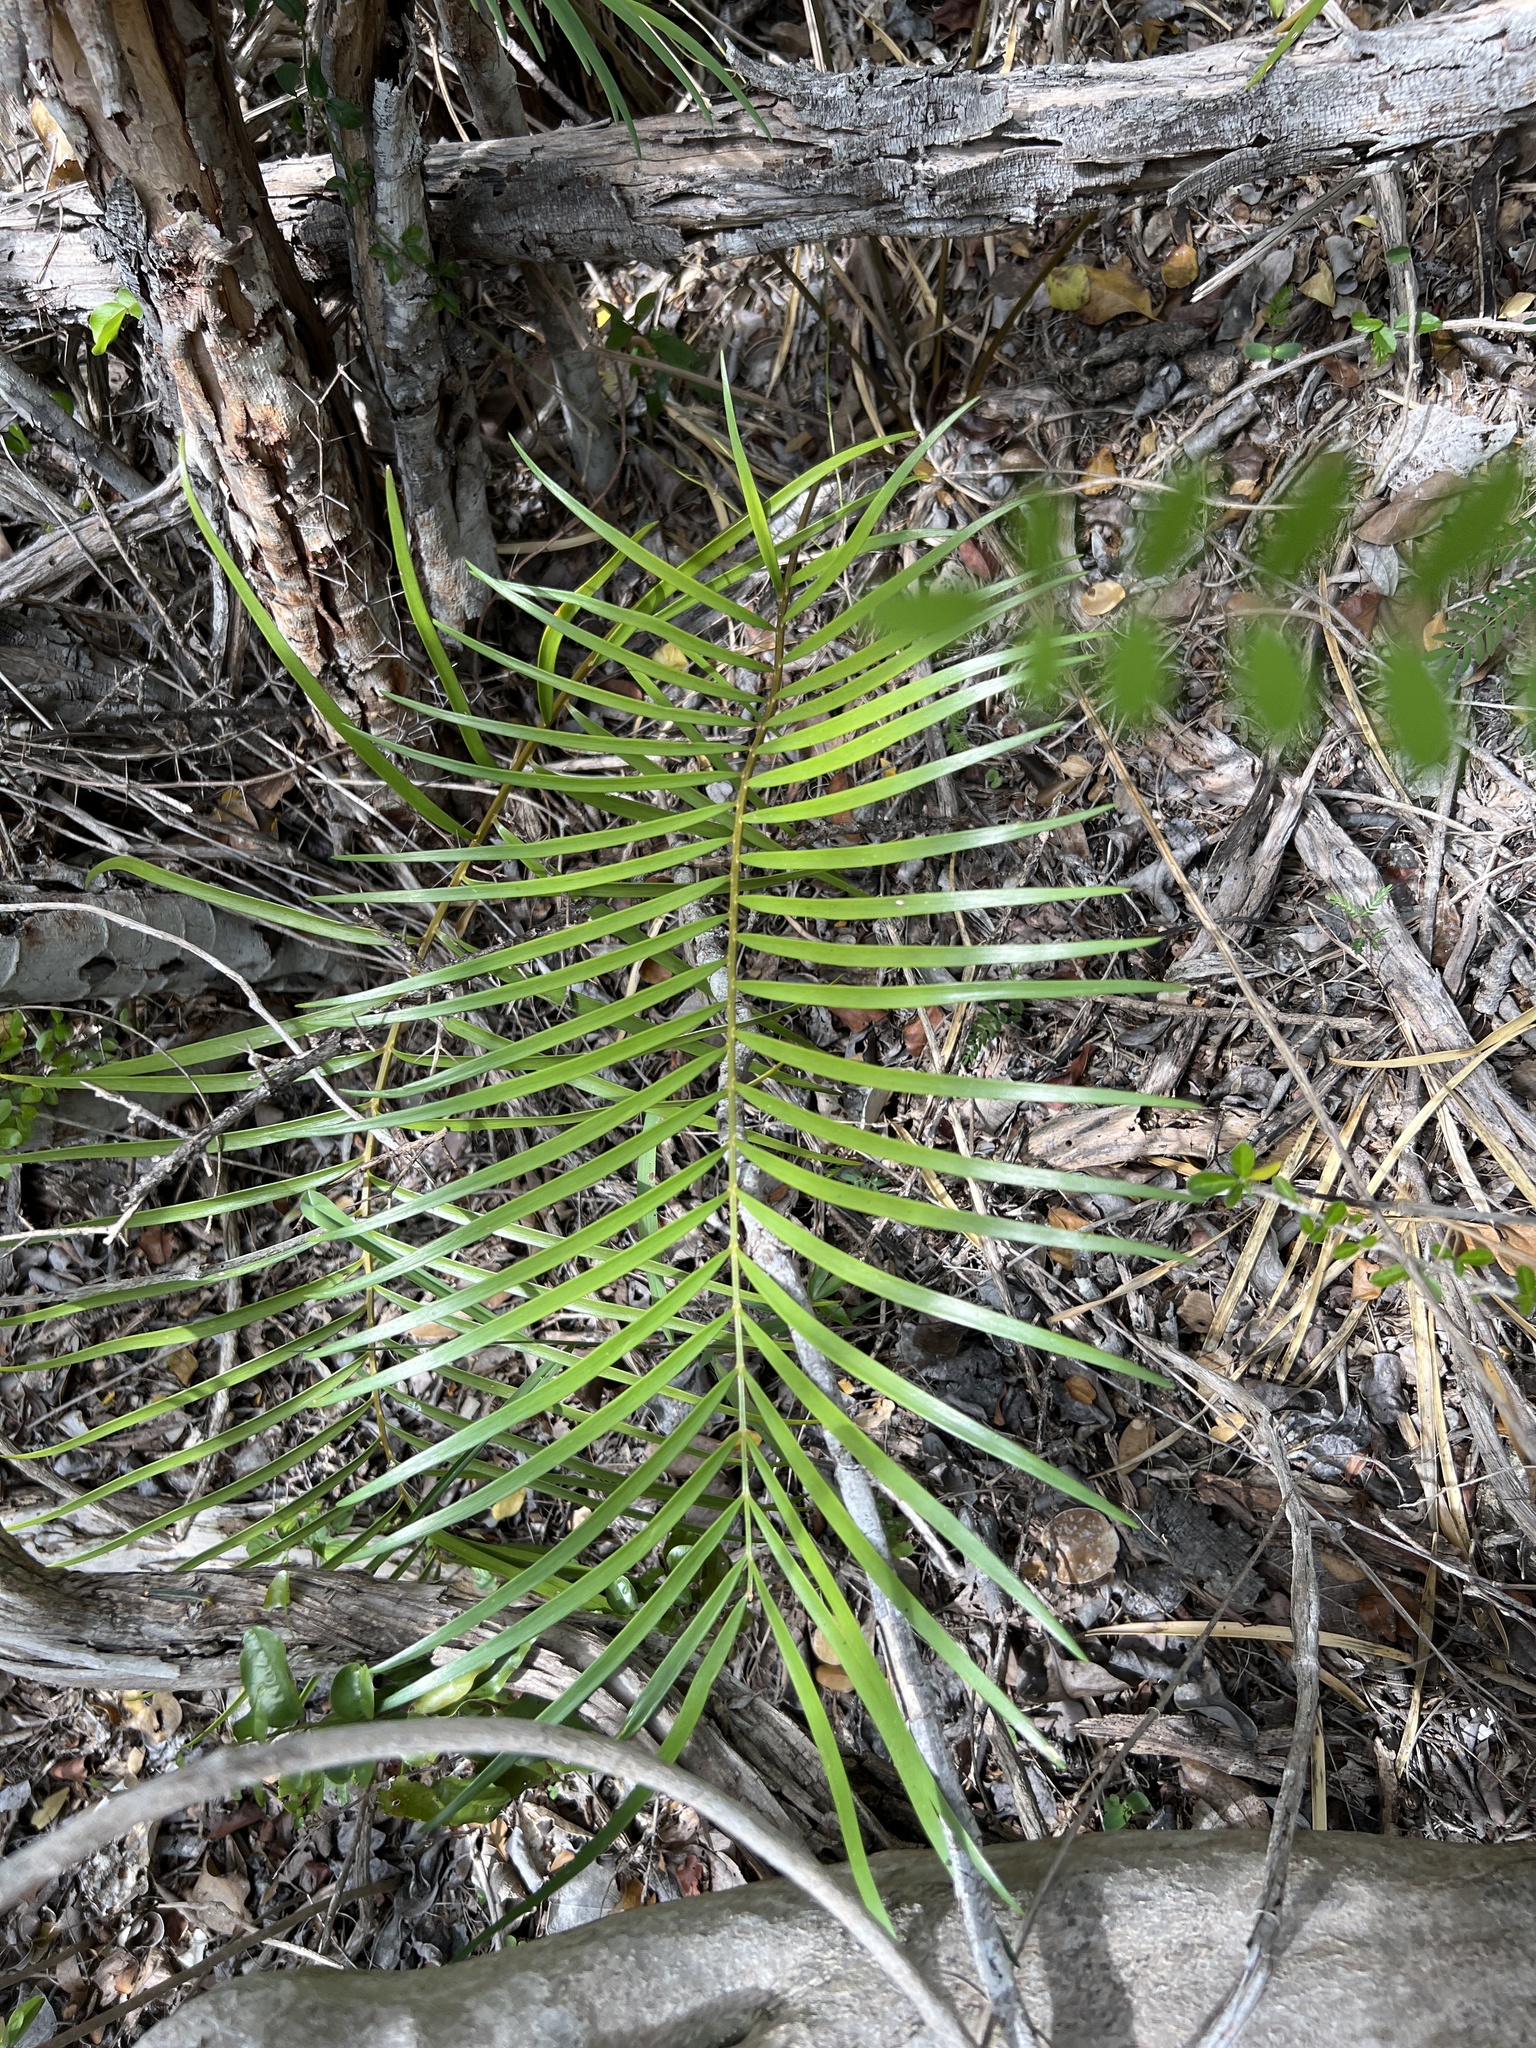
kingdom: Plantae
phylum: Tracheophyta
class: Cycadopsida
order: Cycadales
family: Zamiaceae
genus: Zamia
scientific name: Zamia portoricensis
